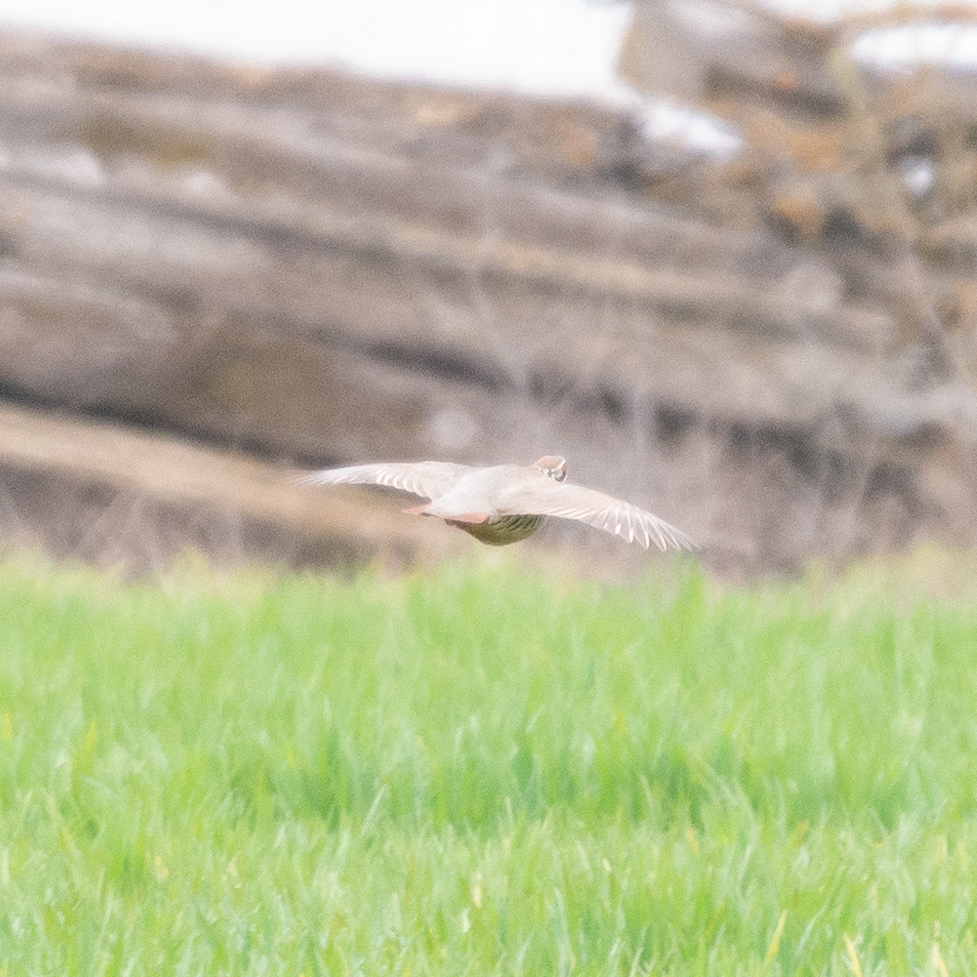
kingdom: Animalia
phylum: Chordata
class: Aves
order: Galliformes
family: Phasianidae
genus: Alectoris
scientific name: Alectoris rufa
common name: Red-legged partridge
